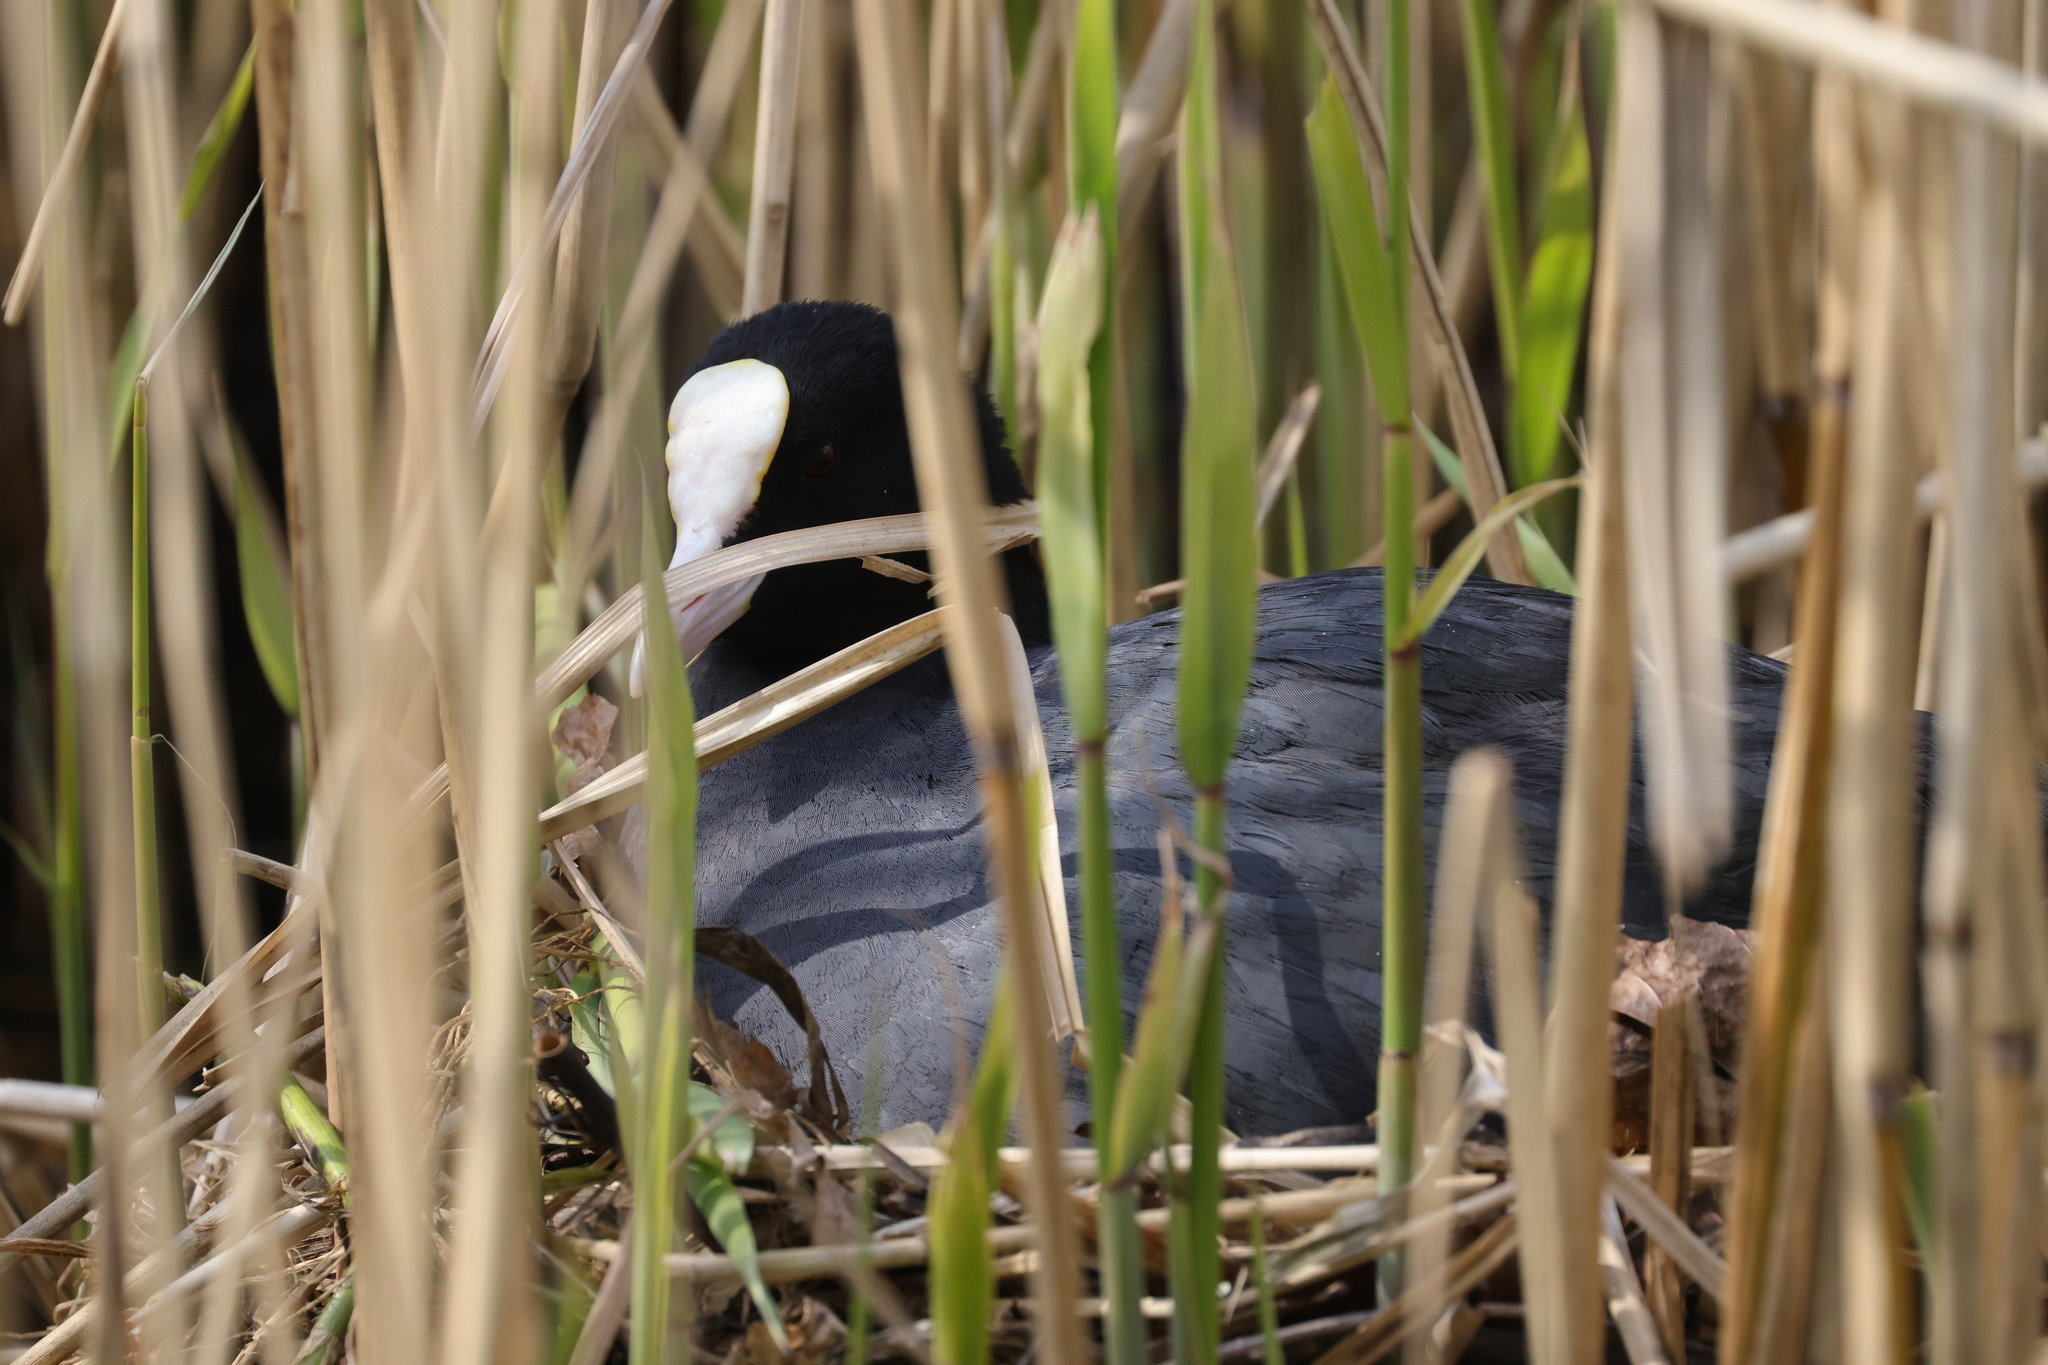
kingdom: Animalia
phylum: Chordata
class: Aves
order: Gruiformes
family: Rallidae
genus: Fulica
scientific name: Fulica atra
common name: Eurasian coot
